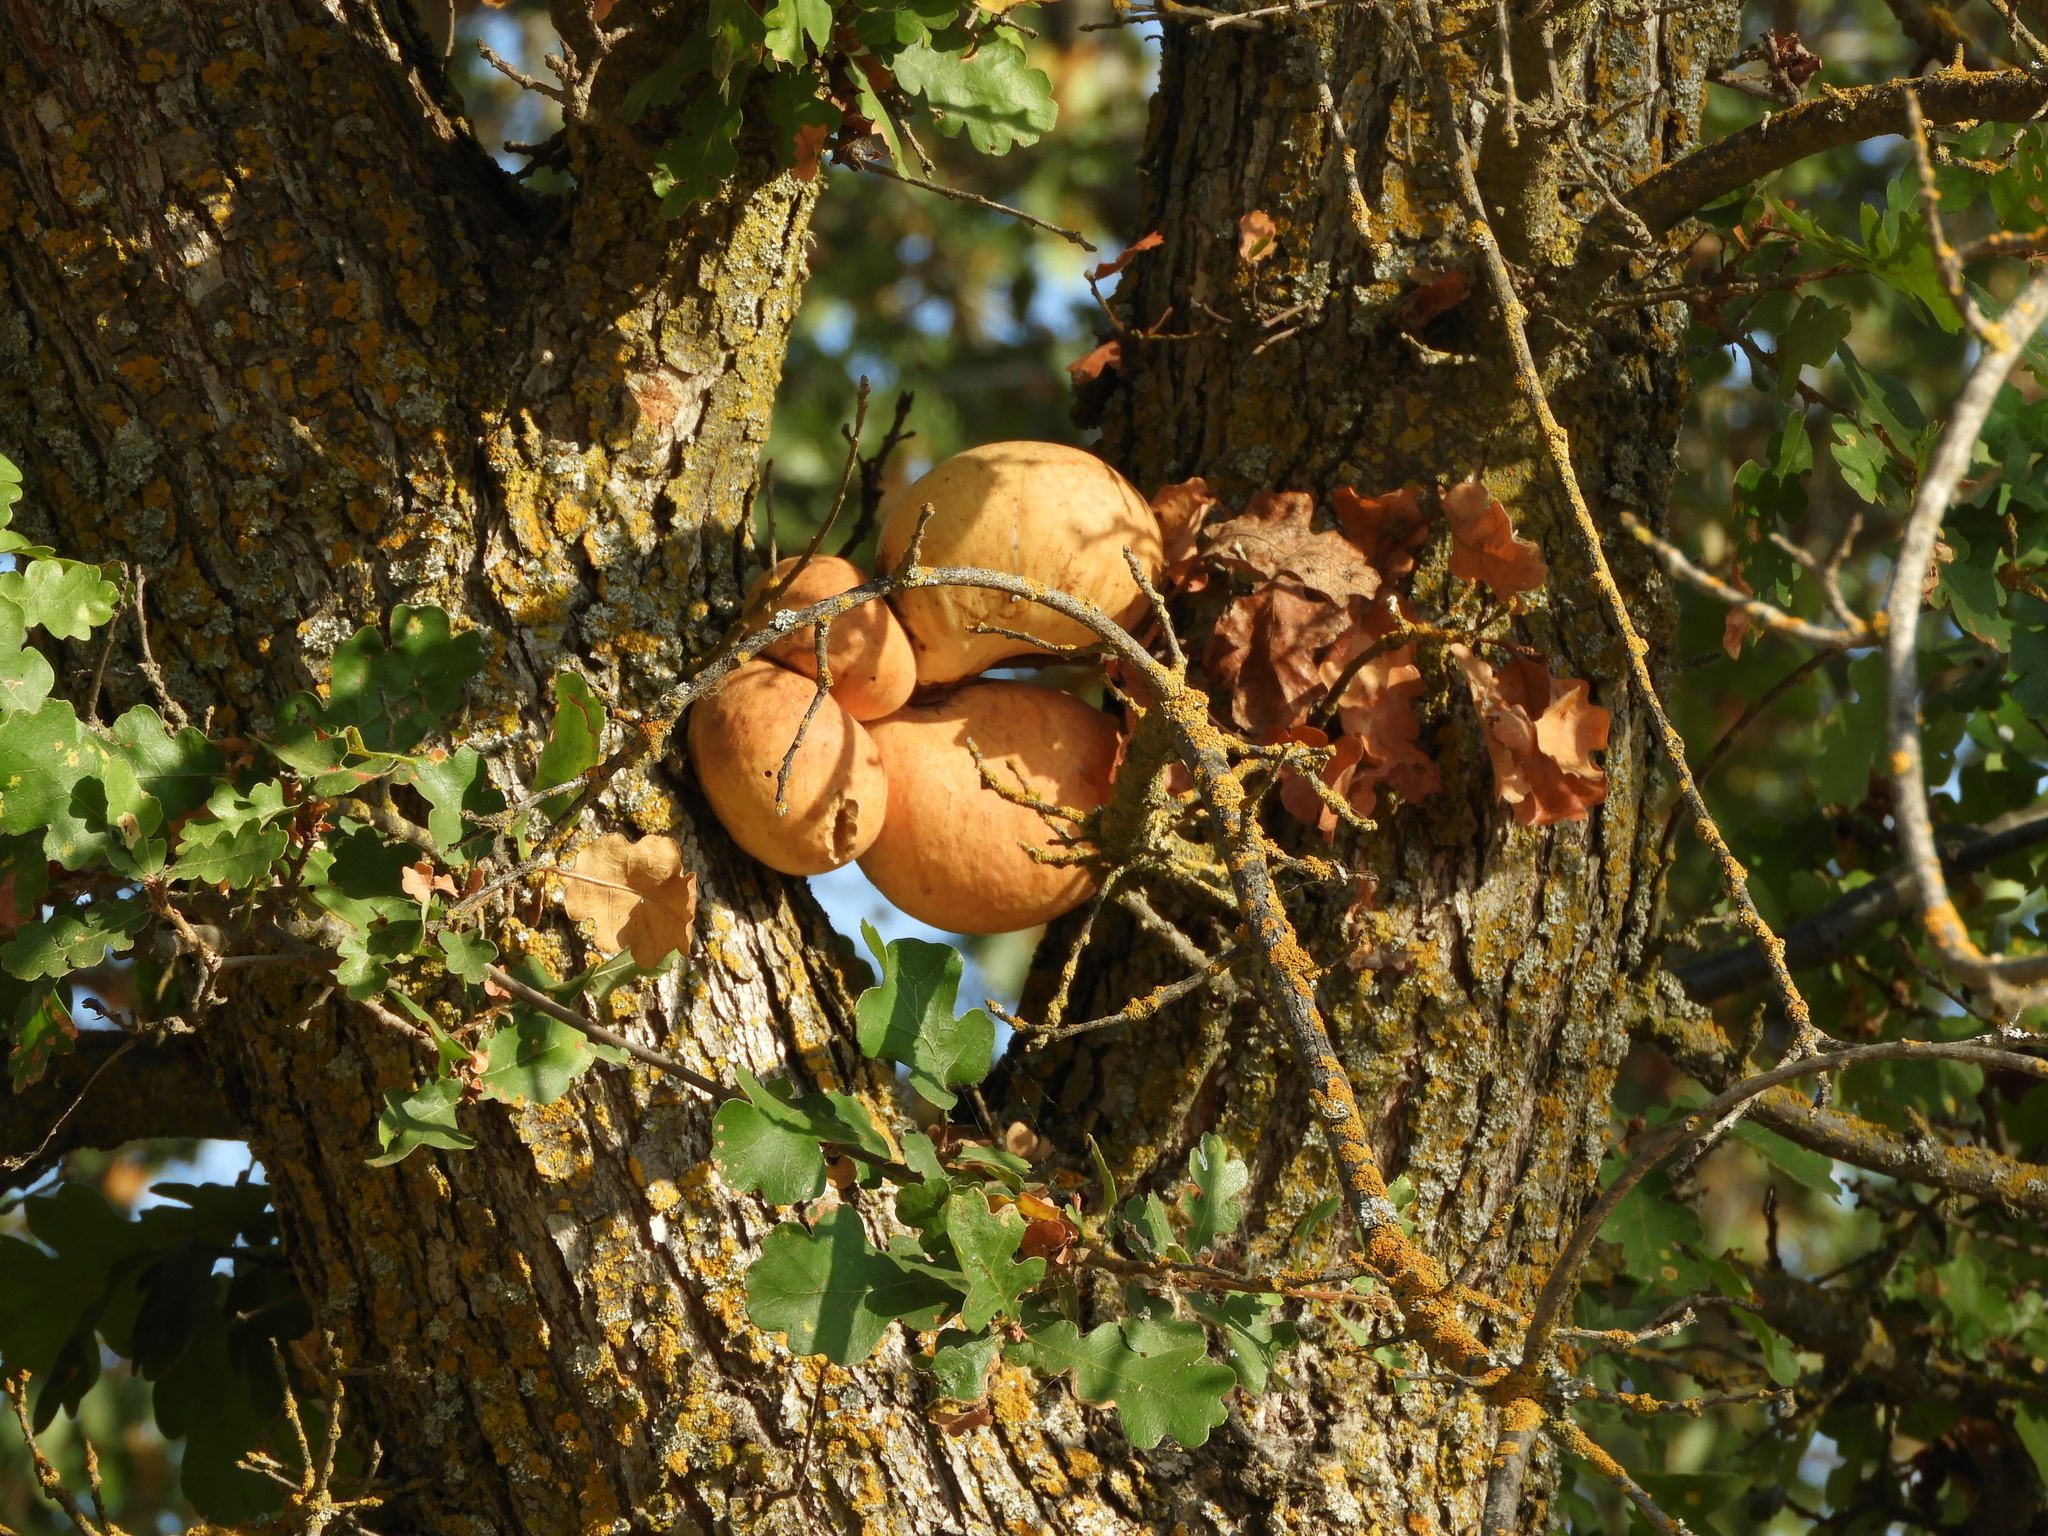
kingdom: Animalia
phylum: Arthropoda
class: Insecta
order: Hymenoptera
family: Cynipidae
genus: Andricus
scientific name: Andricus quercuscalifornicus
